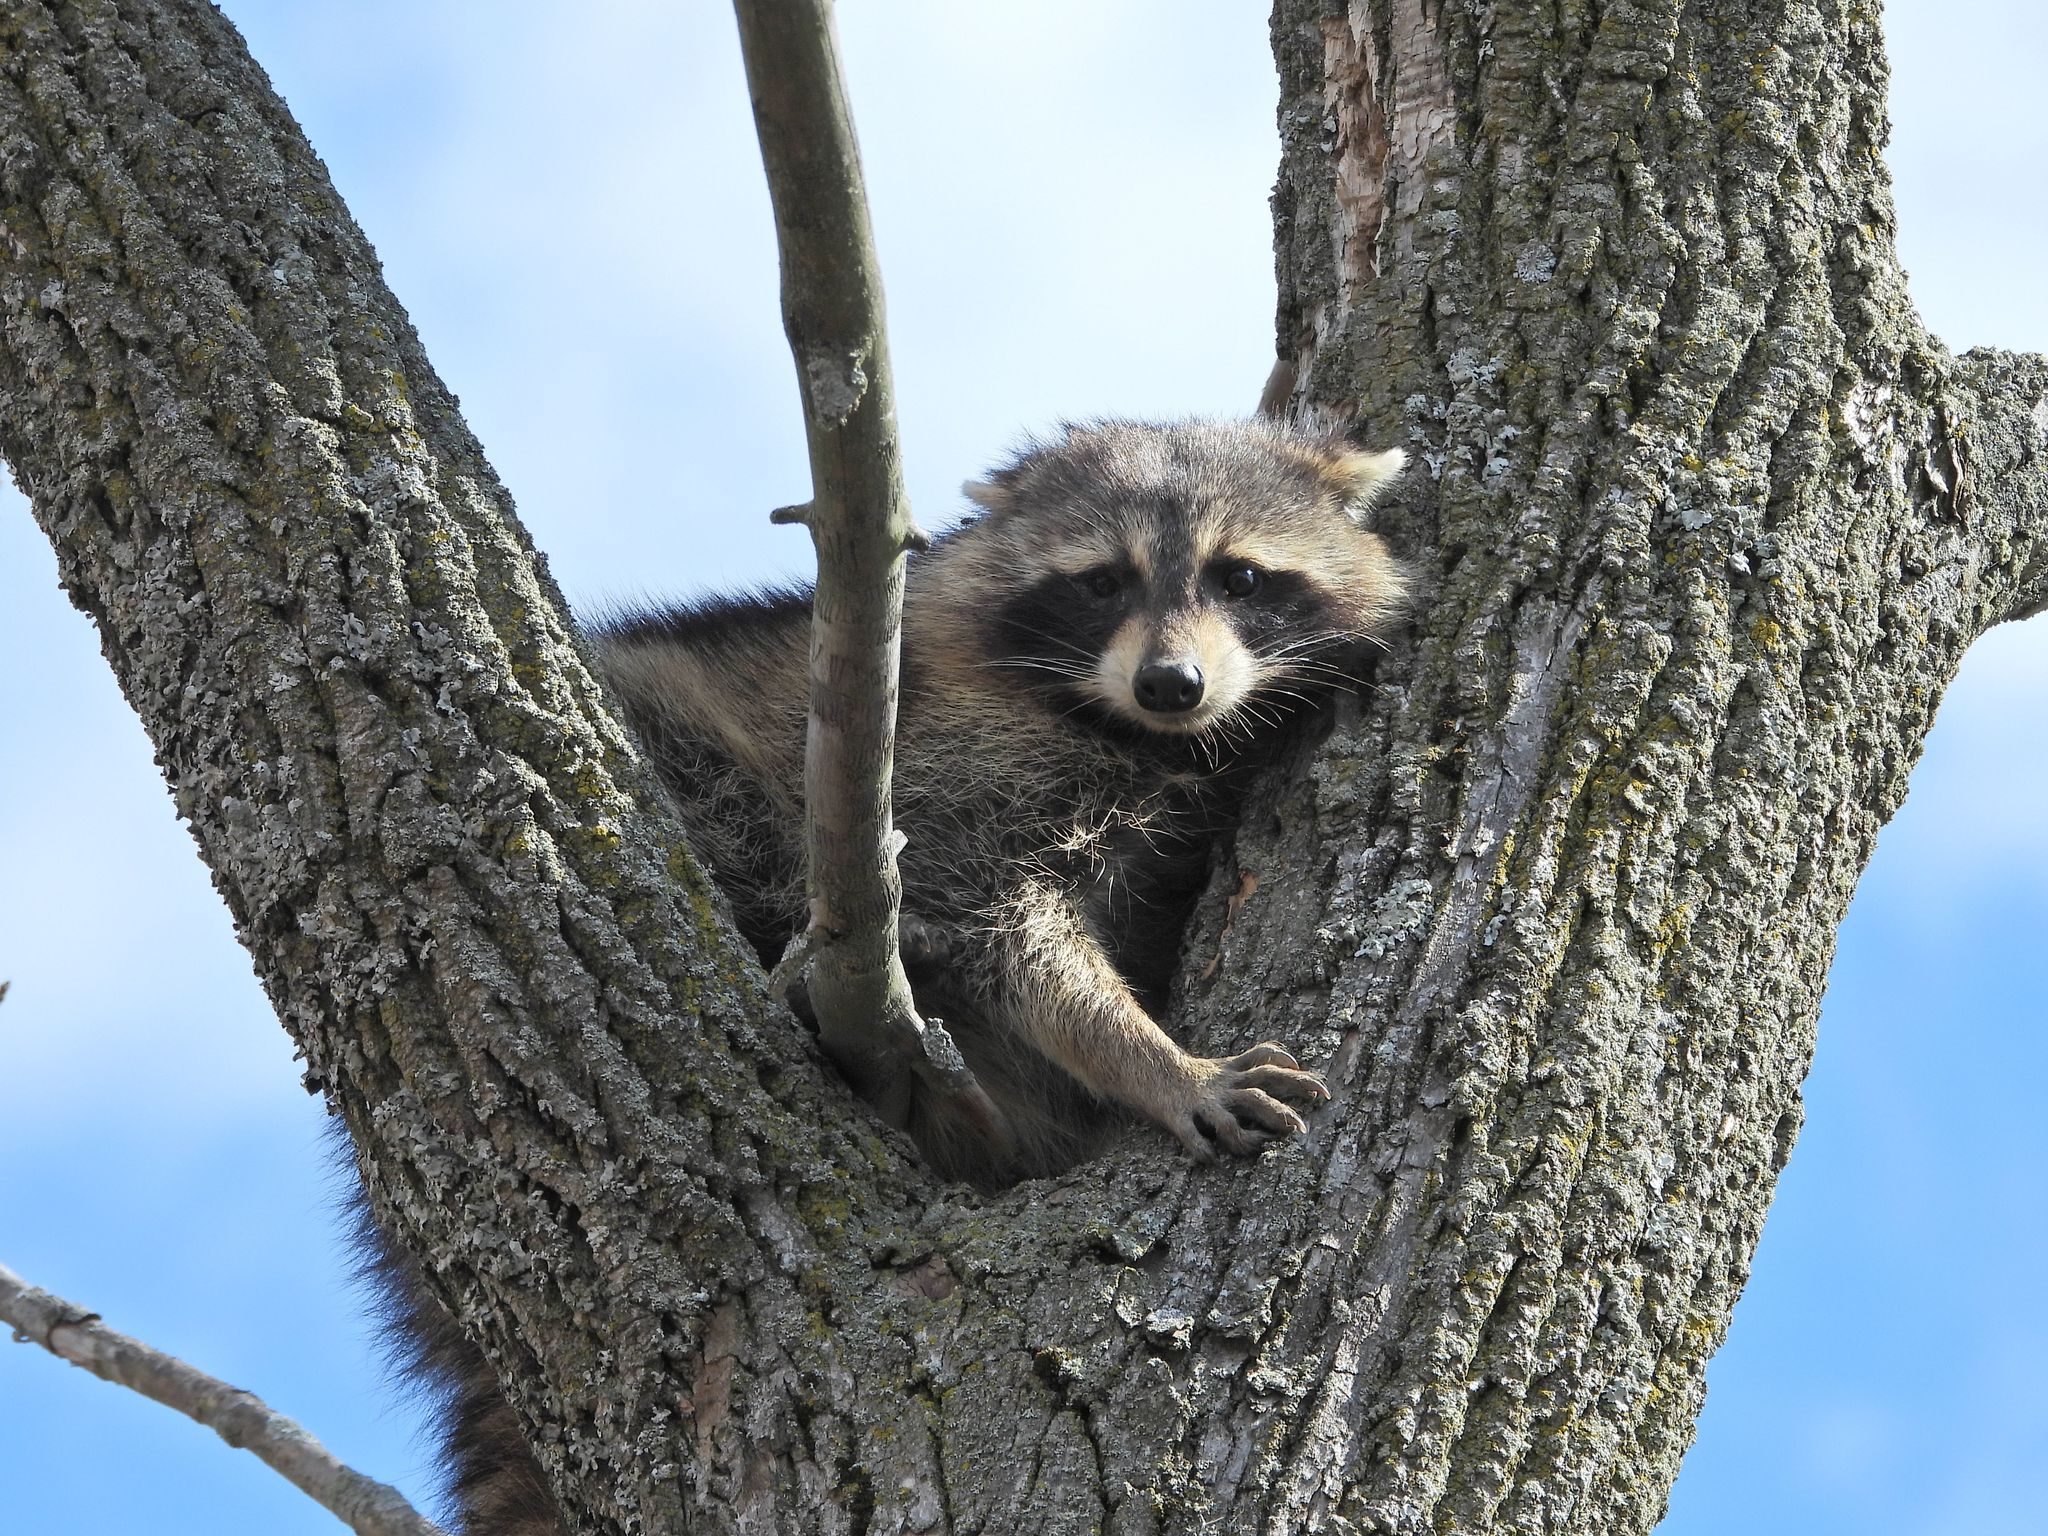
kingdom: Animalia
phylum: Chordata
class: Mammalia
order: Carnivora
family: Procyonidae
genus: Procyon
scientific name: Procyon lotor
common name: Raccoon
